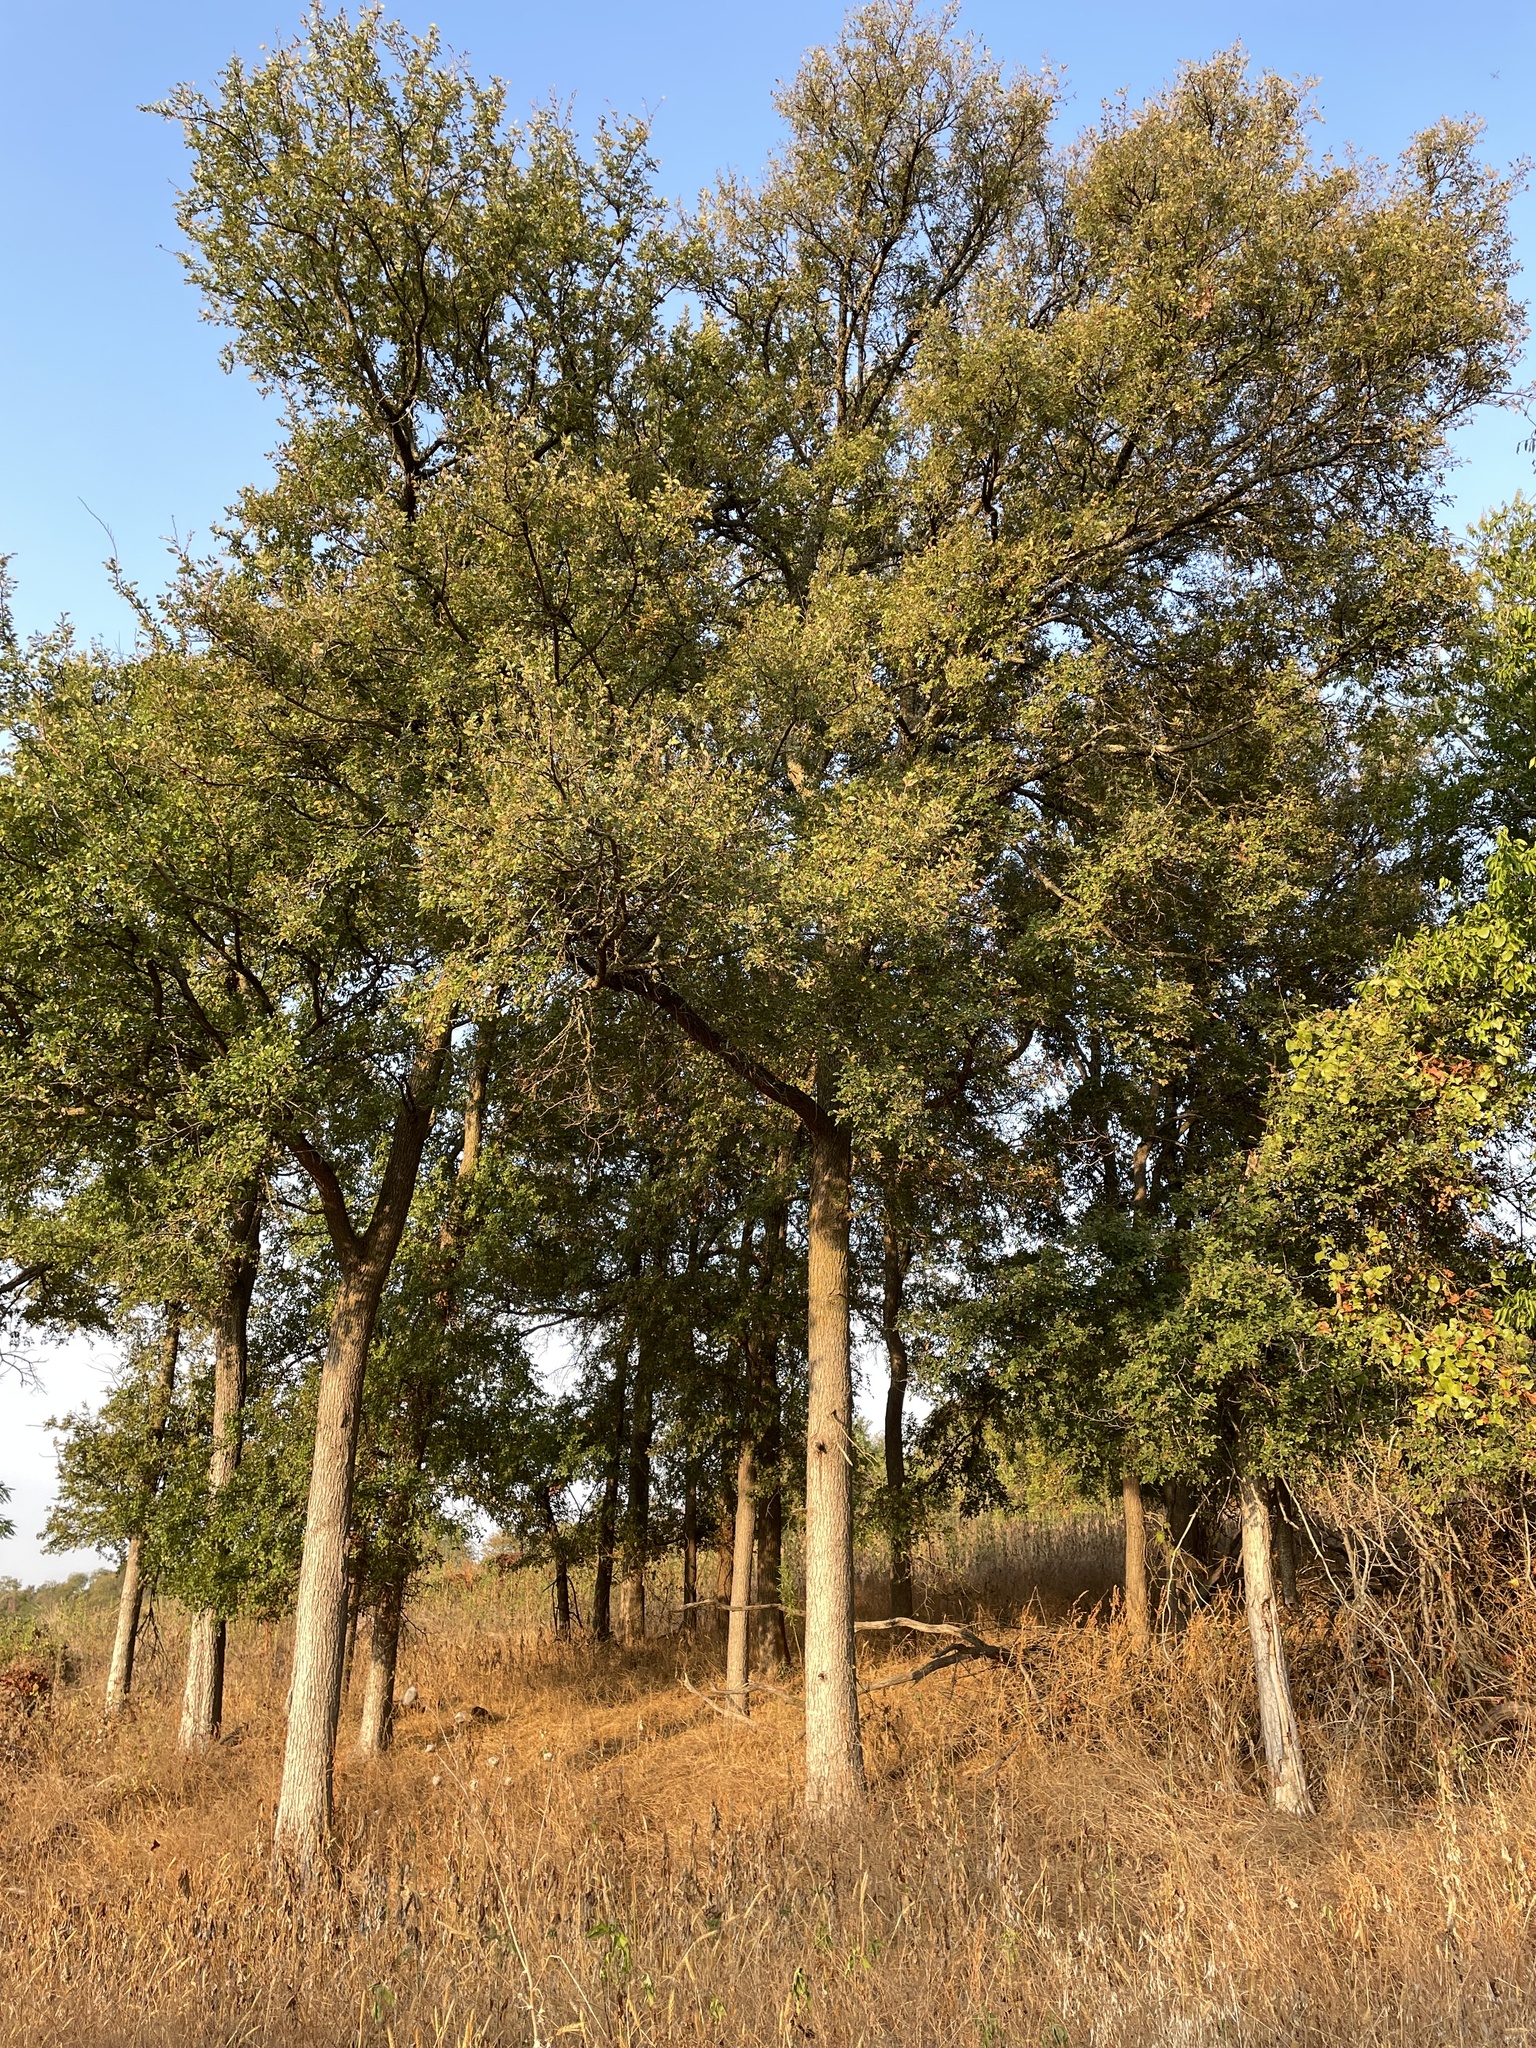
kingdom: Plantae
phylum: Tracheophyta
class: Magnoliopsida
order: Rosales
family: Ulmaceae
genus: Ulmus
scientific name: Ulmus crassifolia
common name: Basket elm
